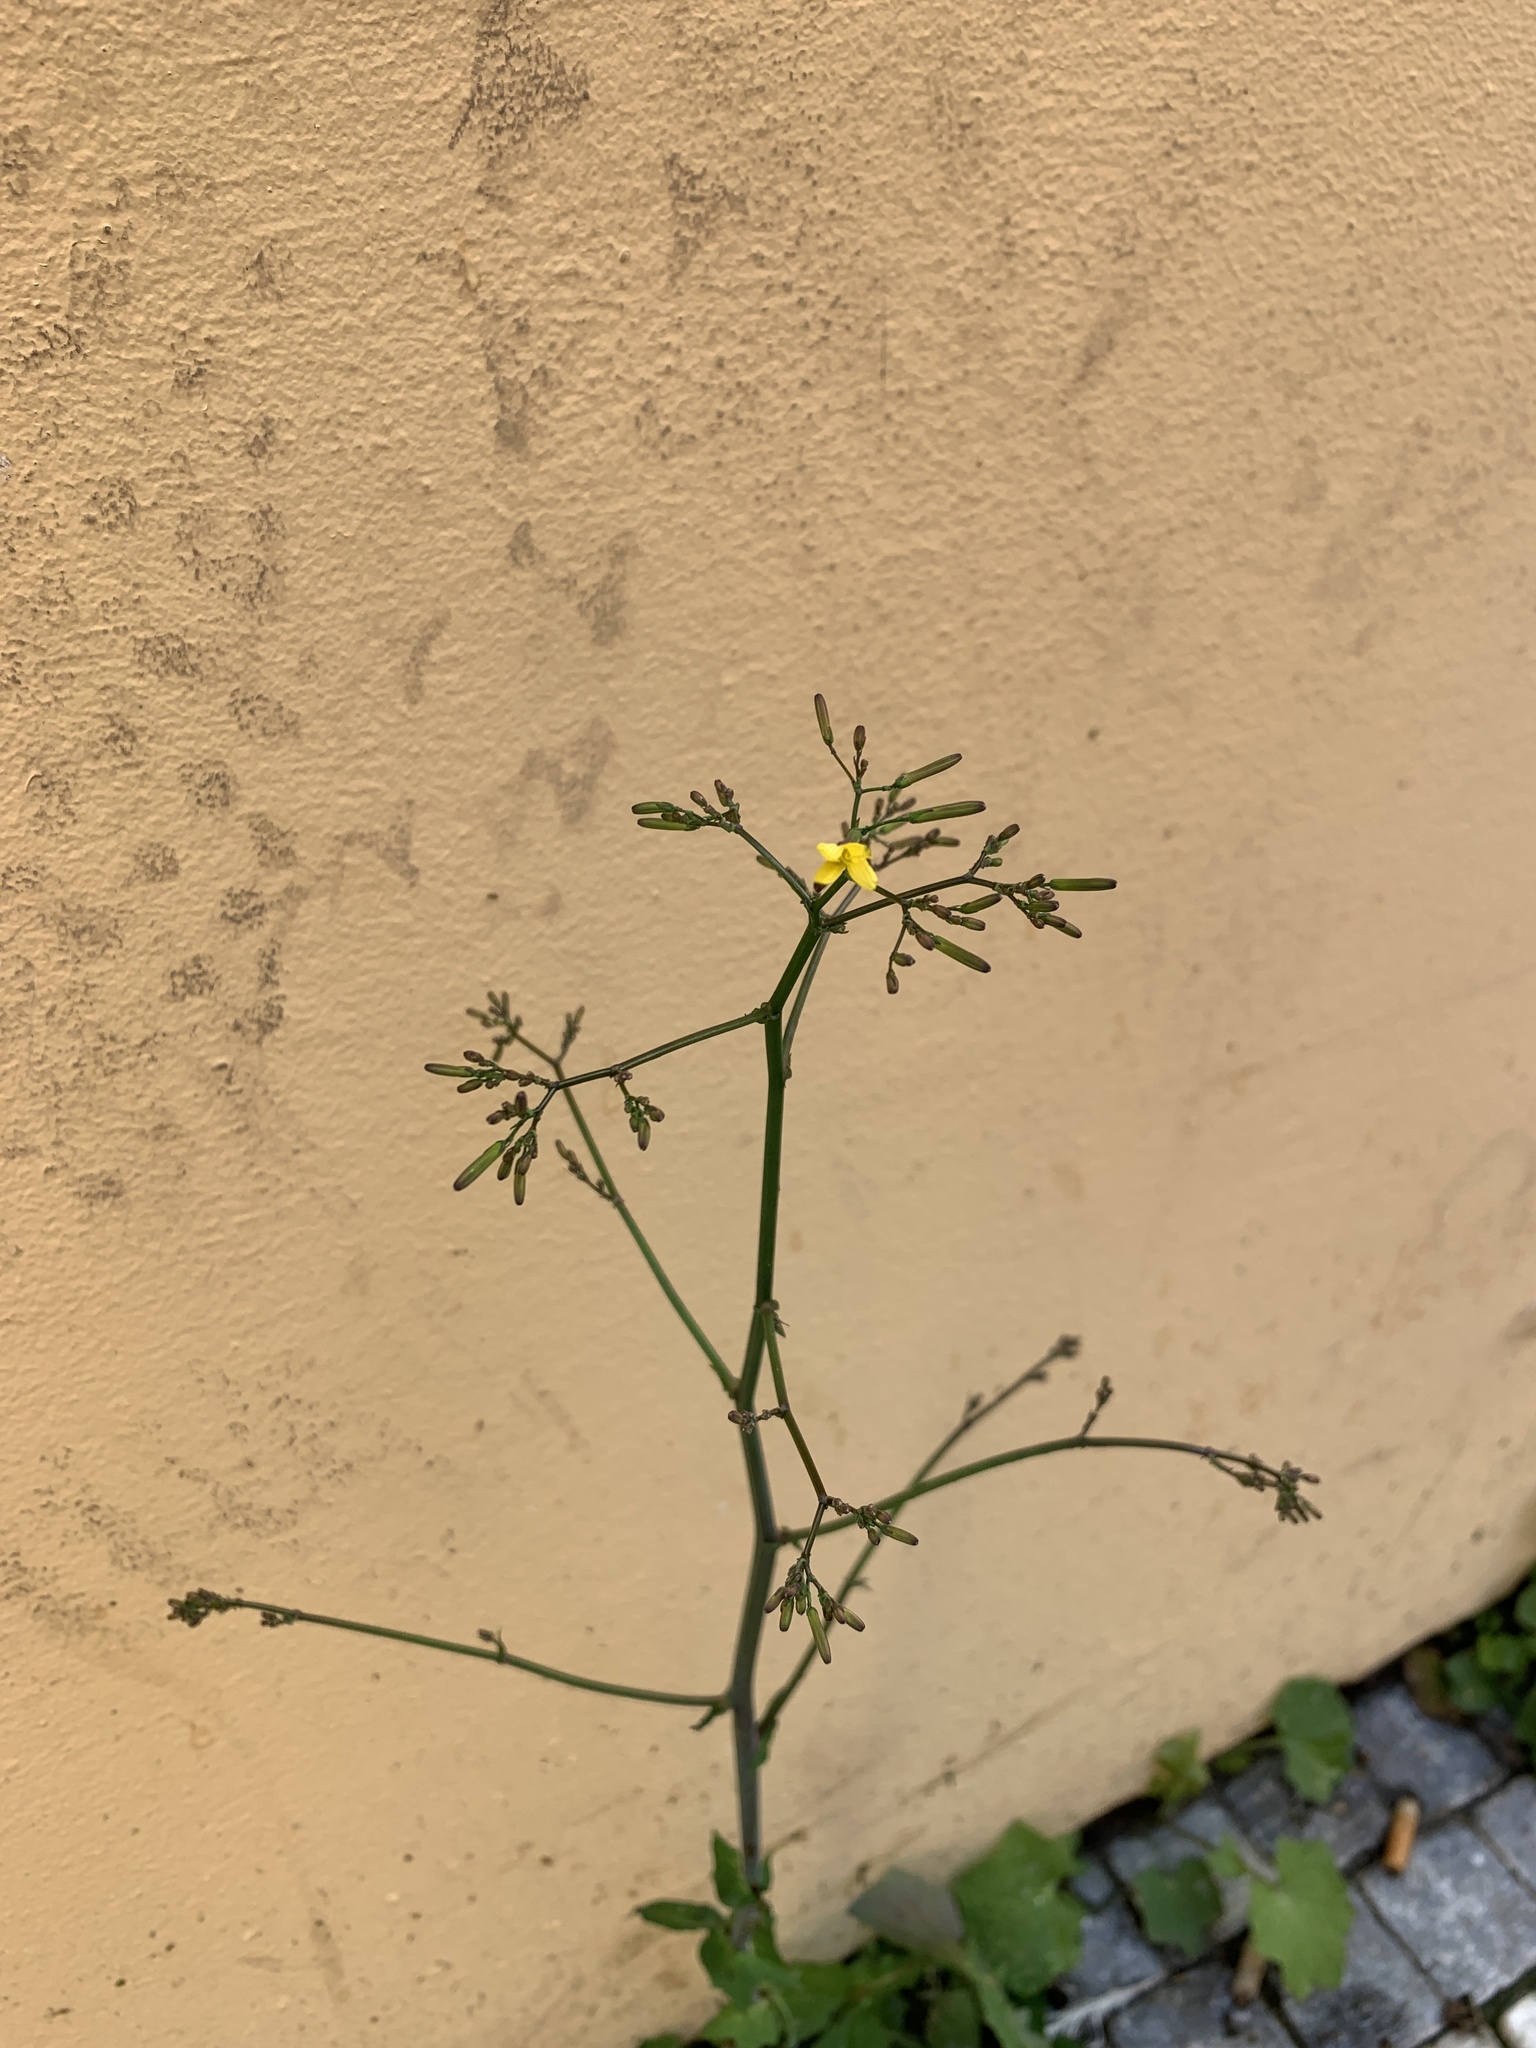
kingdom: Plantae
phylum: Tracheophyta
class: Magnoliopsida
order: Asterales
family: Asteraceae
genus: Mycelis
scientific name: Mycelis muralis
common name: Wall lettuce
